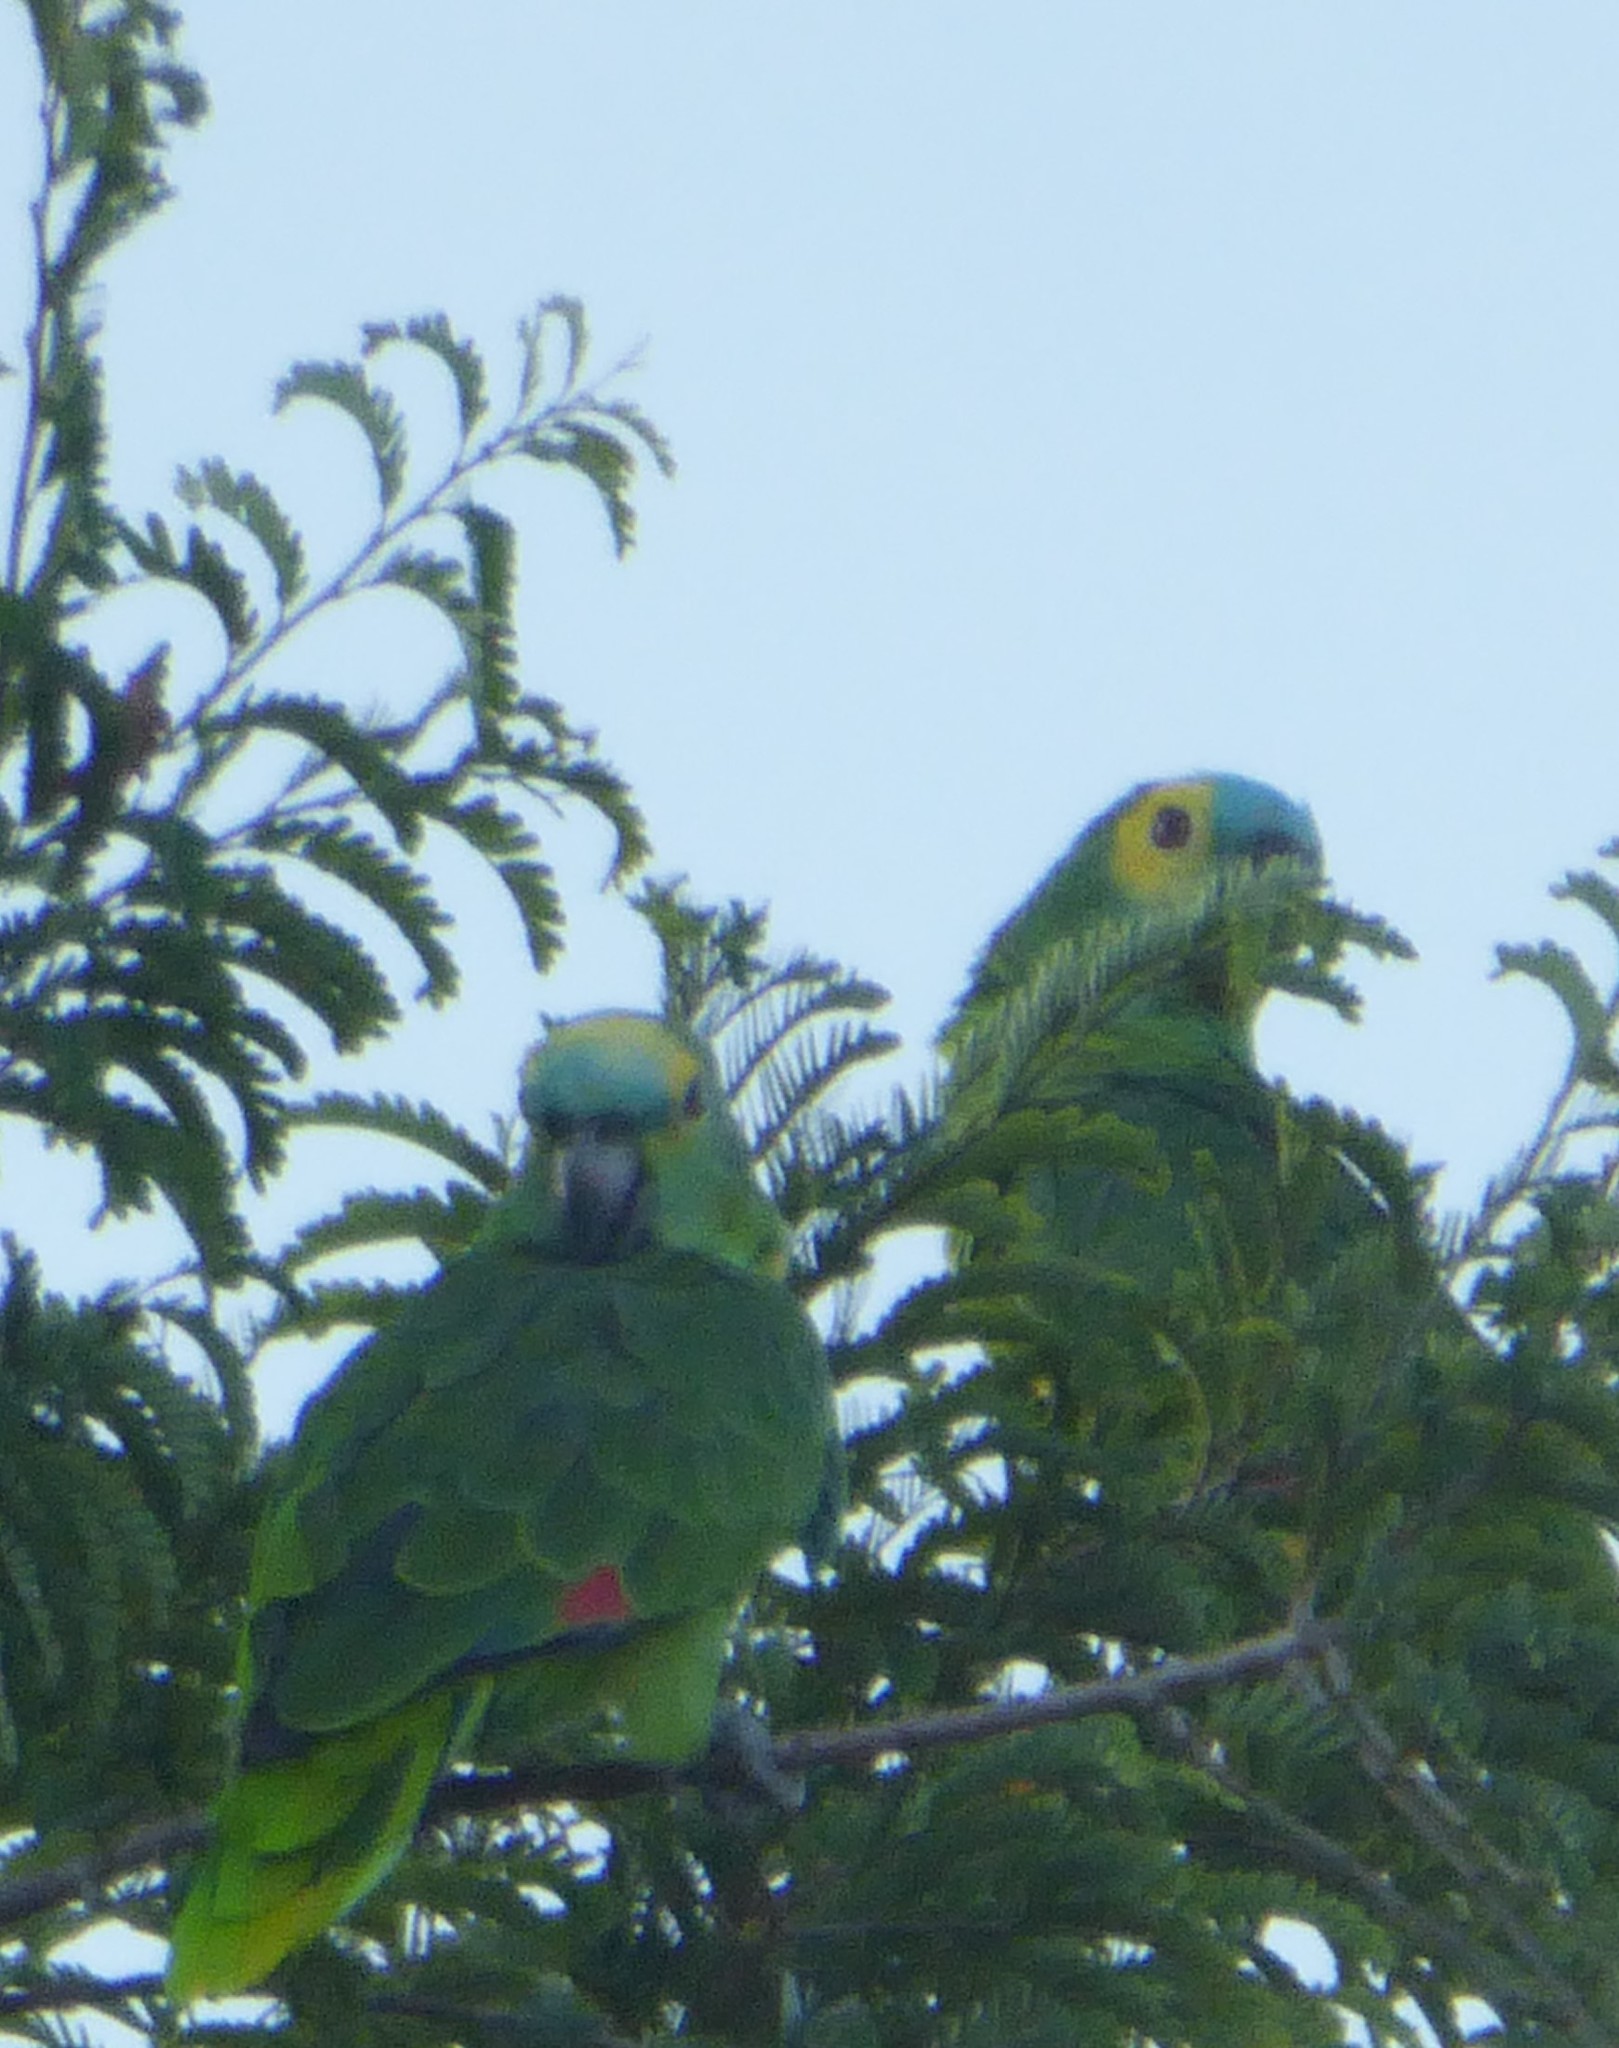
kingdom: Animalia
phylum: Chordata
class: Aves
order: Psittaciformes
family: Psittacidae
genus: Amazona
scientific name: Amazona aestiva
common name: Turquoise-fronted amazon
